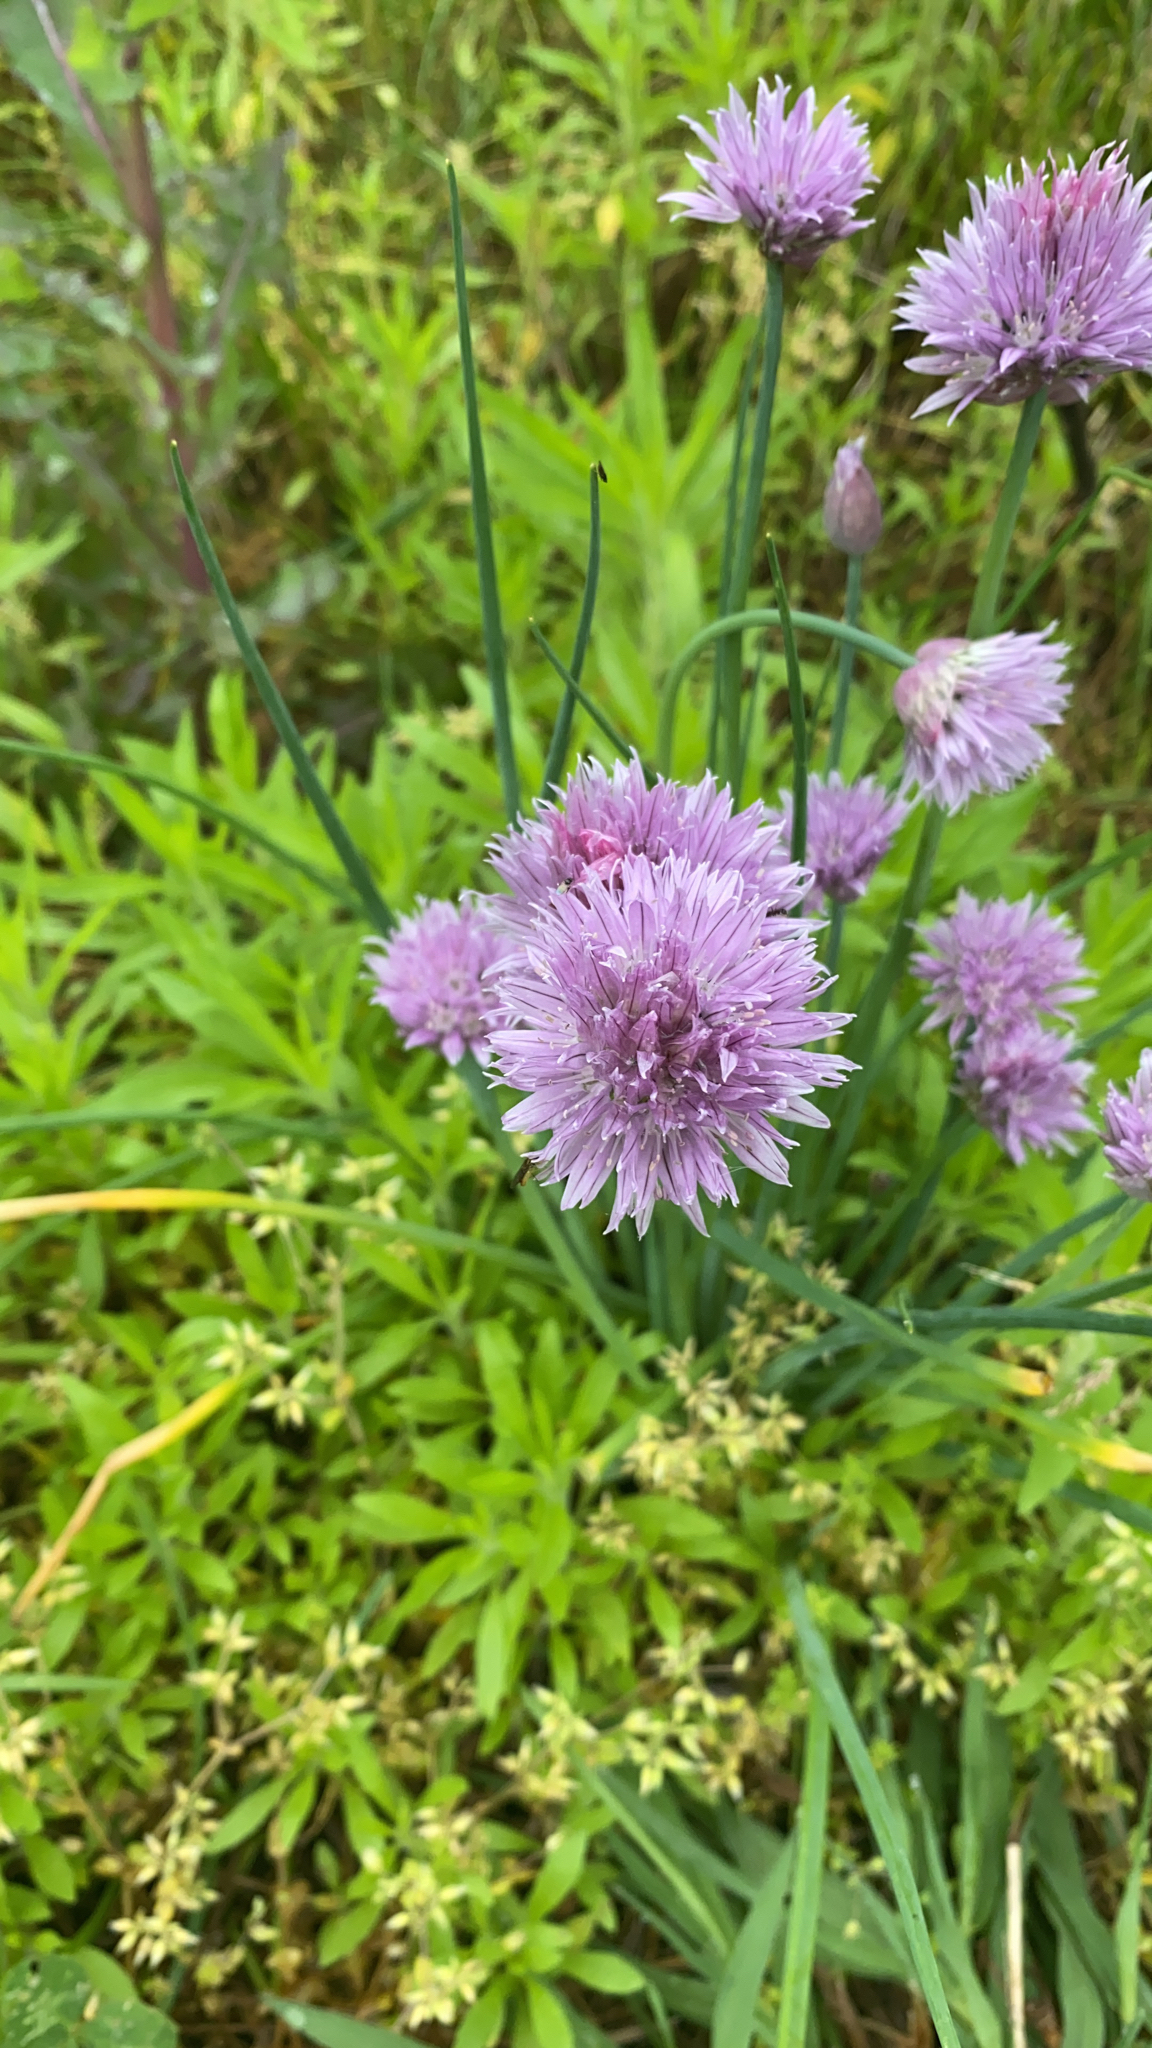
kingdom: Plantae
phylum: Tracheophyta
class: Liliopsida
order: Asparagales
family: Amaryllidaceae
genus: Allium
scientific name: Allium schoenoprasum
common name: Chives
